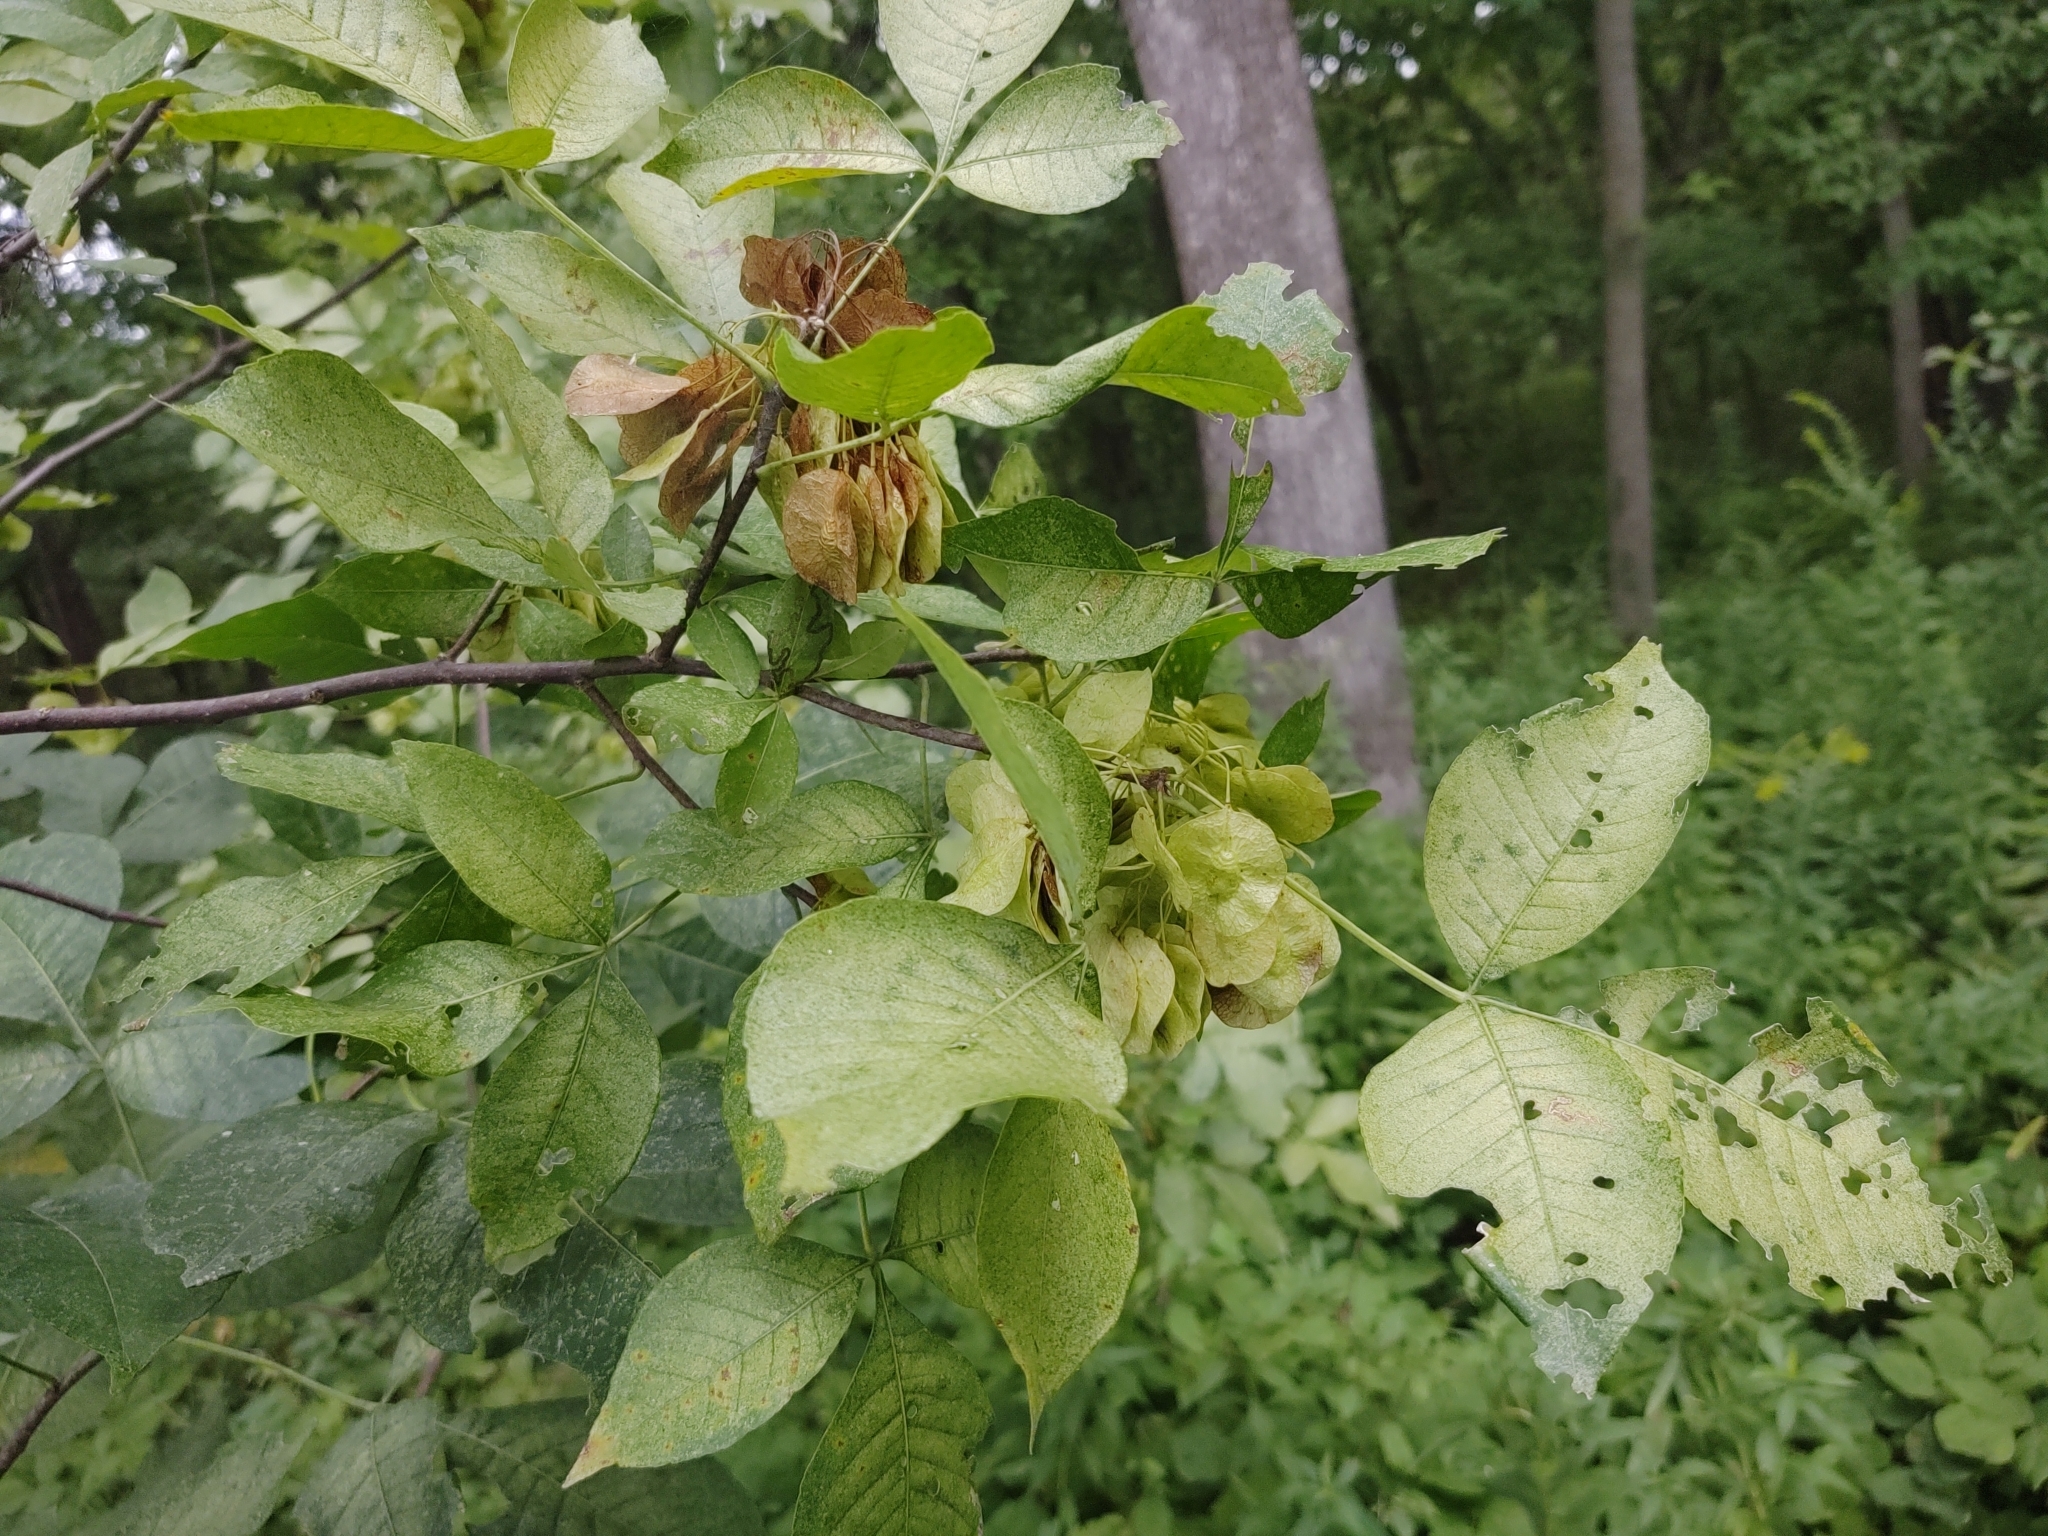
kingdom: Plantae
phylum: Tracheophyta
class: Magnoliopsida
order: Sapindales
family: Rutaceae
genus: Ptelea
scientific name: Ptelea trifoliata
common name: Common hop-tree
